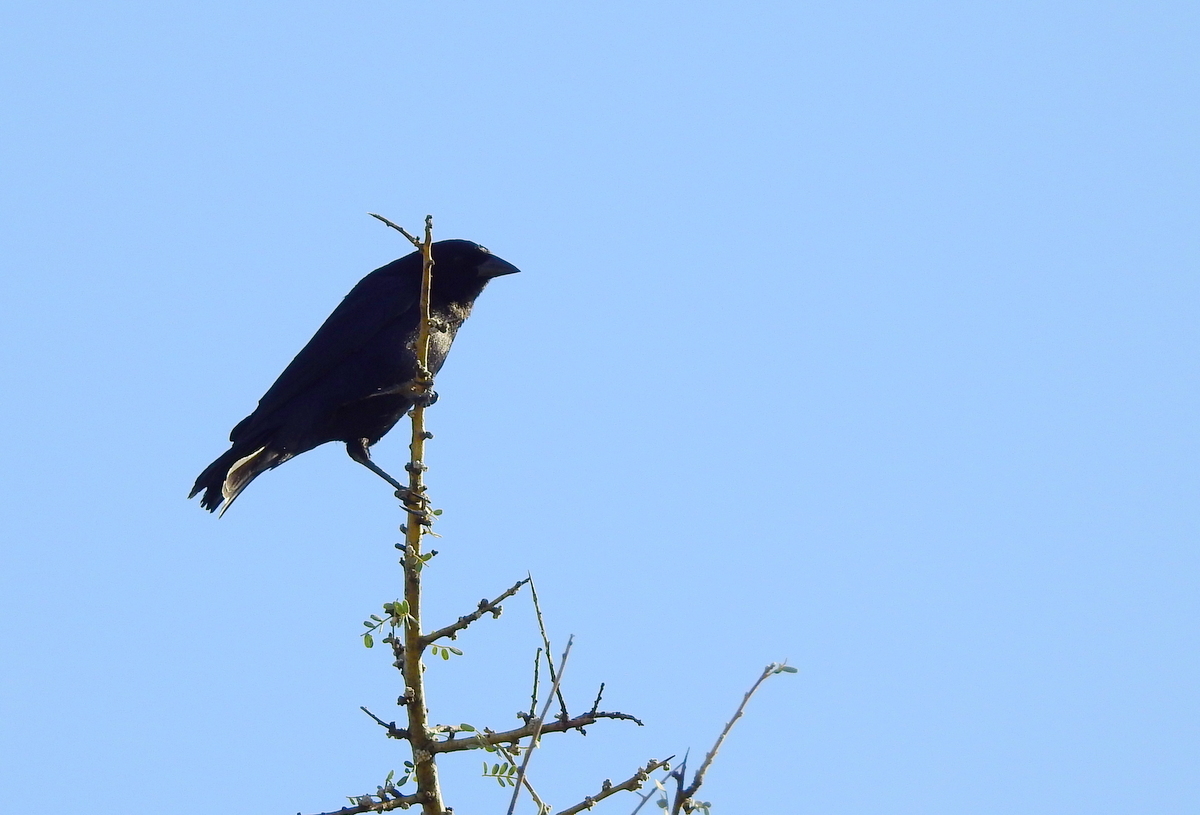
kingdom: Animalia
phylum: Chordata
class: Aves
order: Passeriformes
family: Icteridae
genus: Molothrus
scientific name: Molothrus bonariensis
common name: Shiny cowbird
